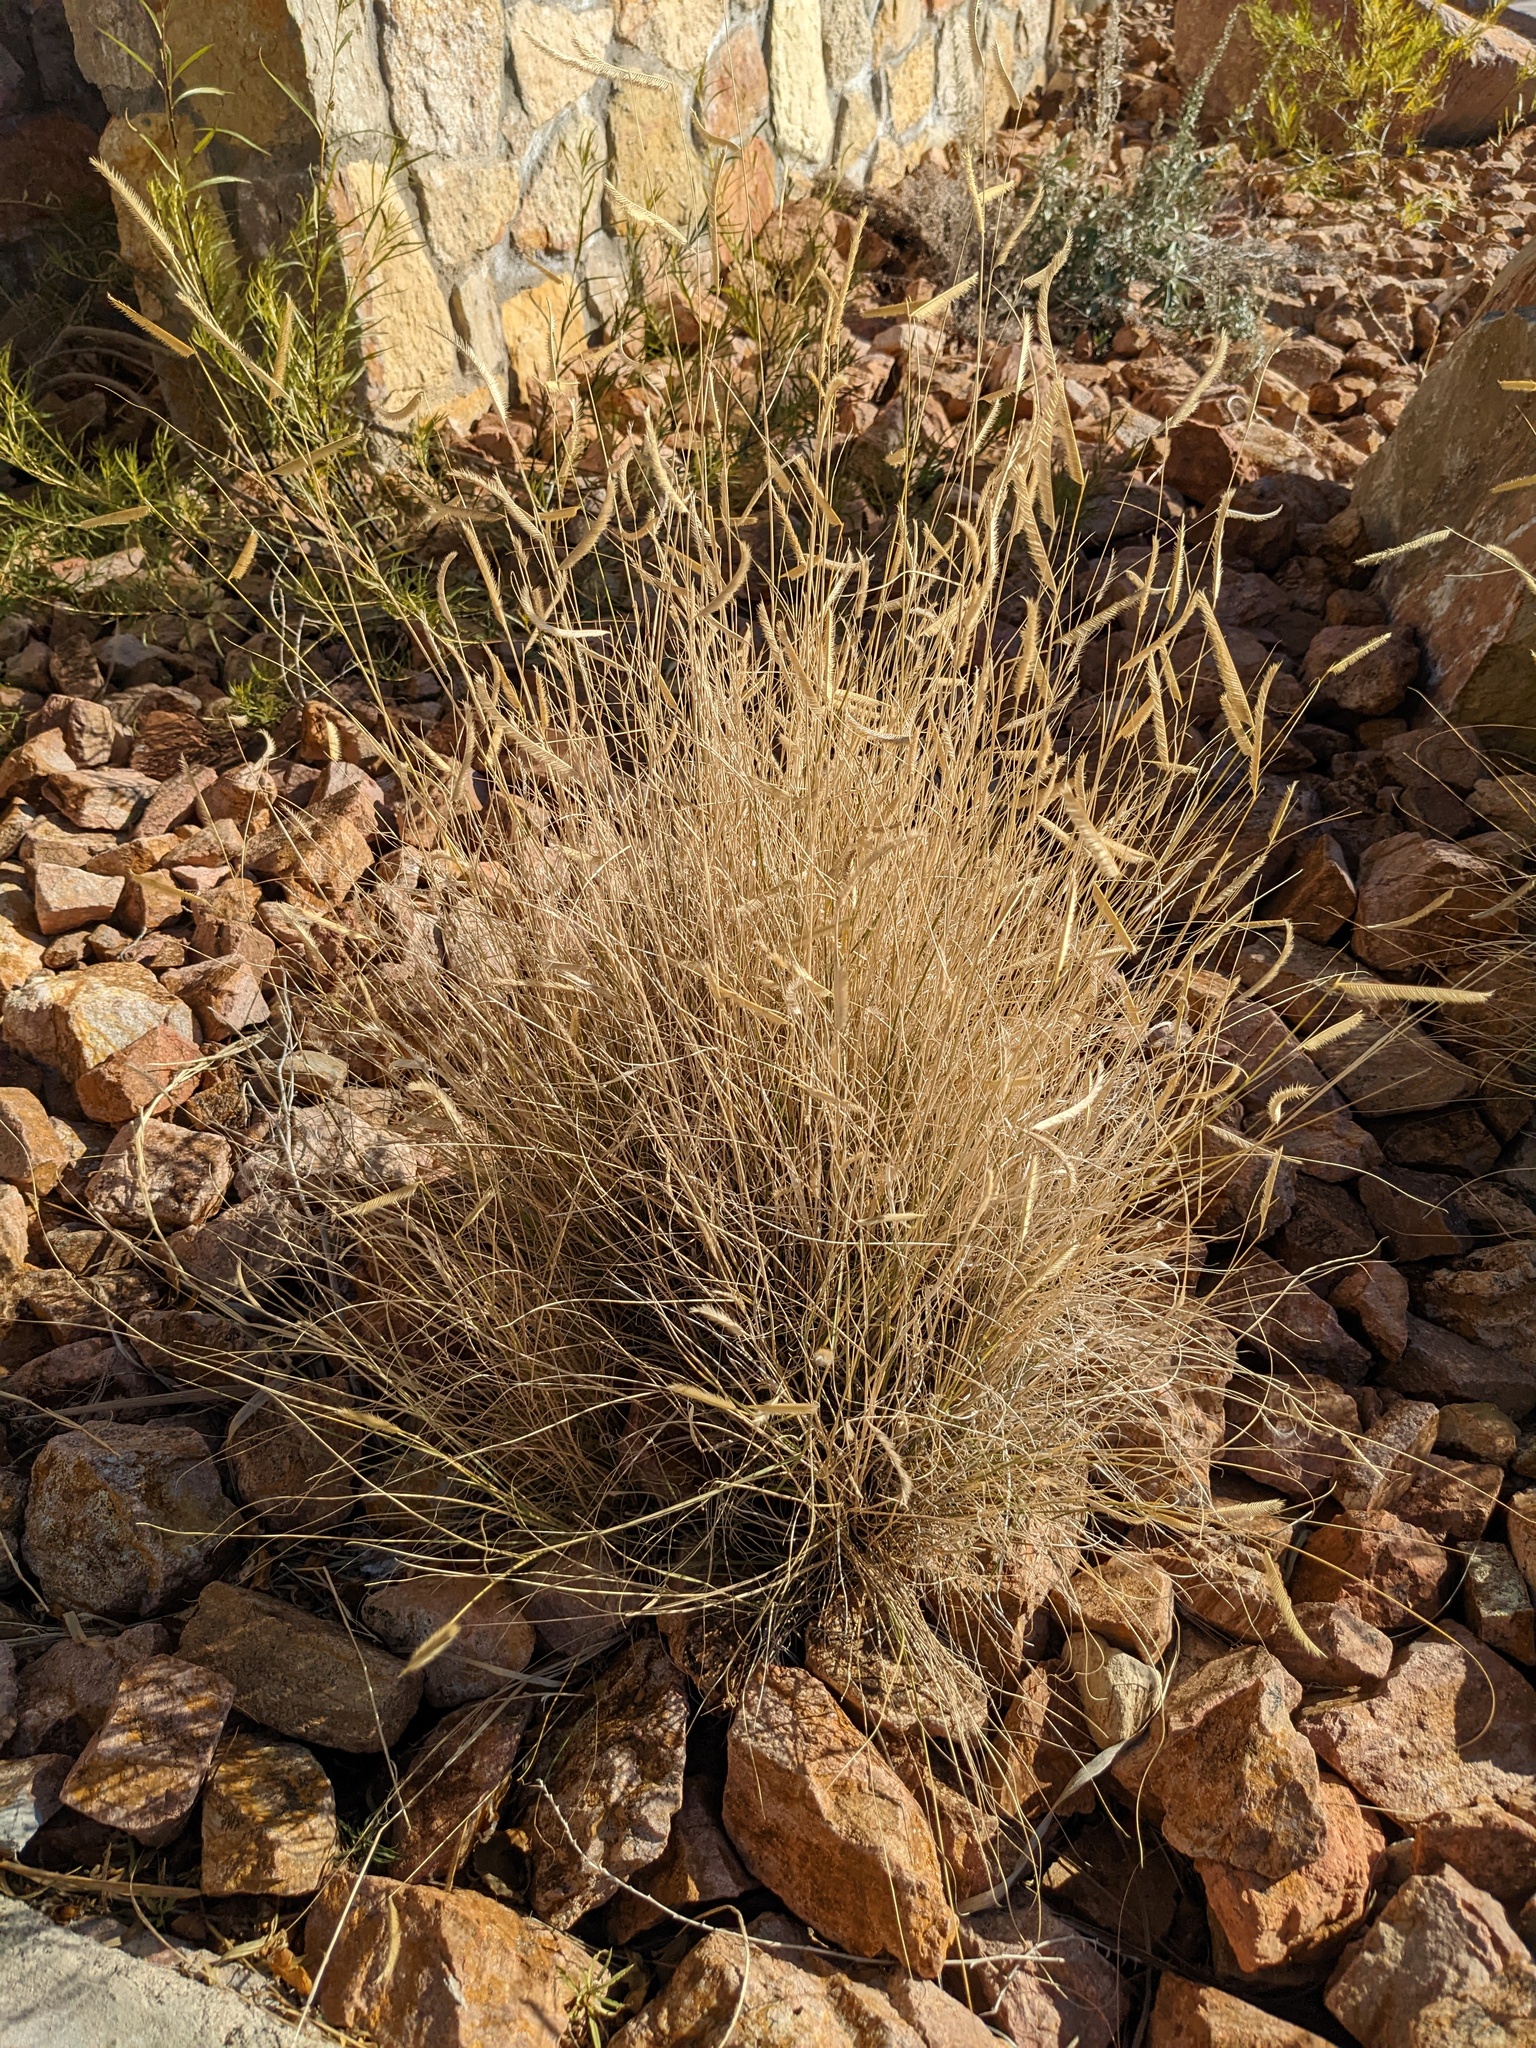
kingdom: Plantae
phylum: Tracheophyta
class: Liliopsida
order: Poales
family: Poaceae
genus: Bouteloua
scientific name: Bouteloua gracilis
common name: Blue grama
